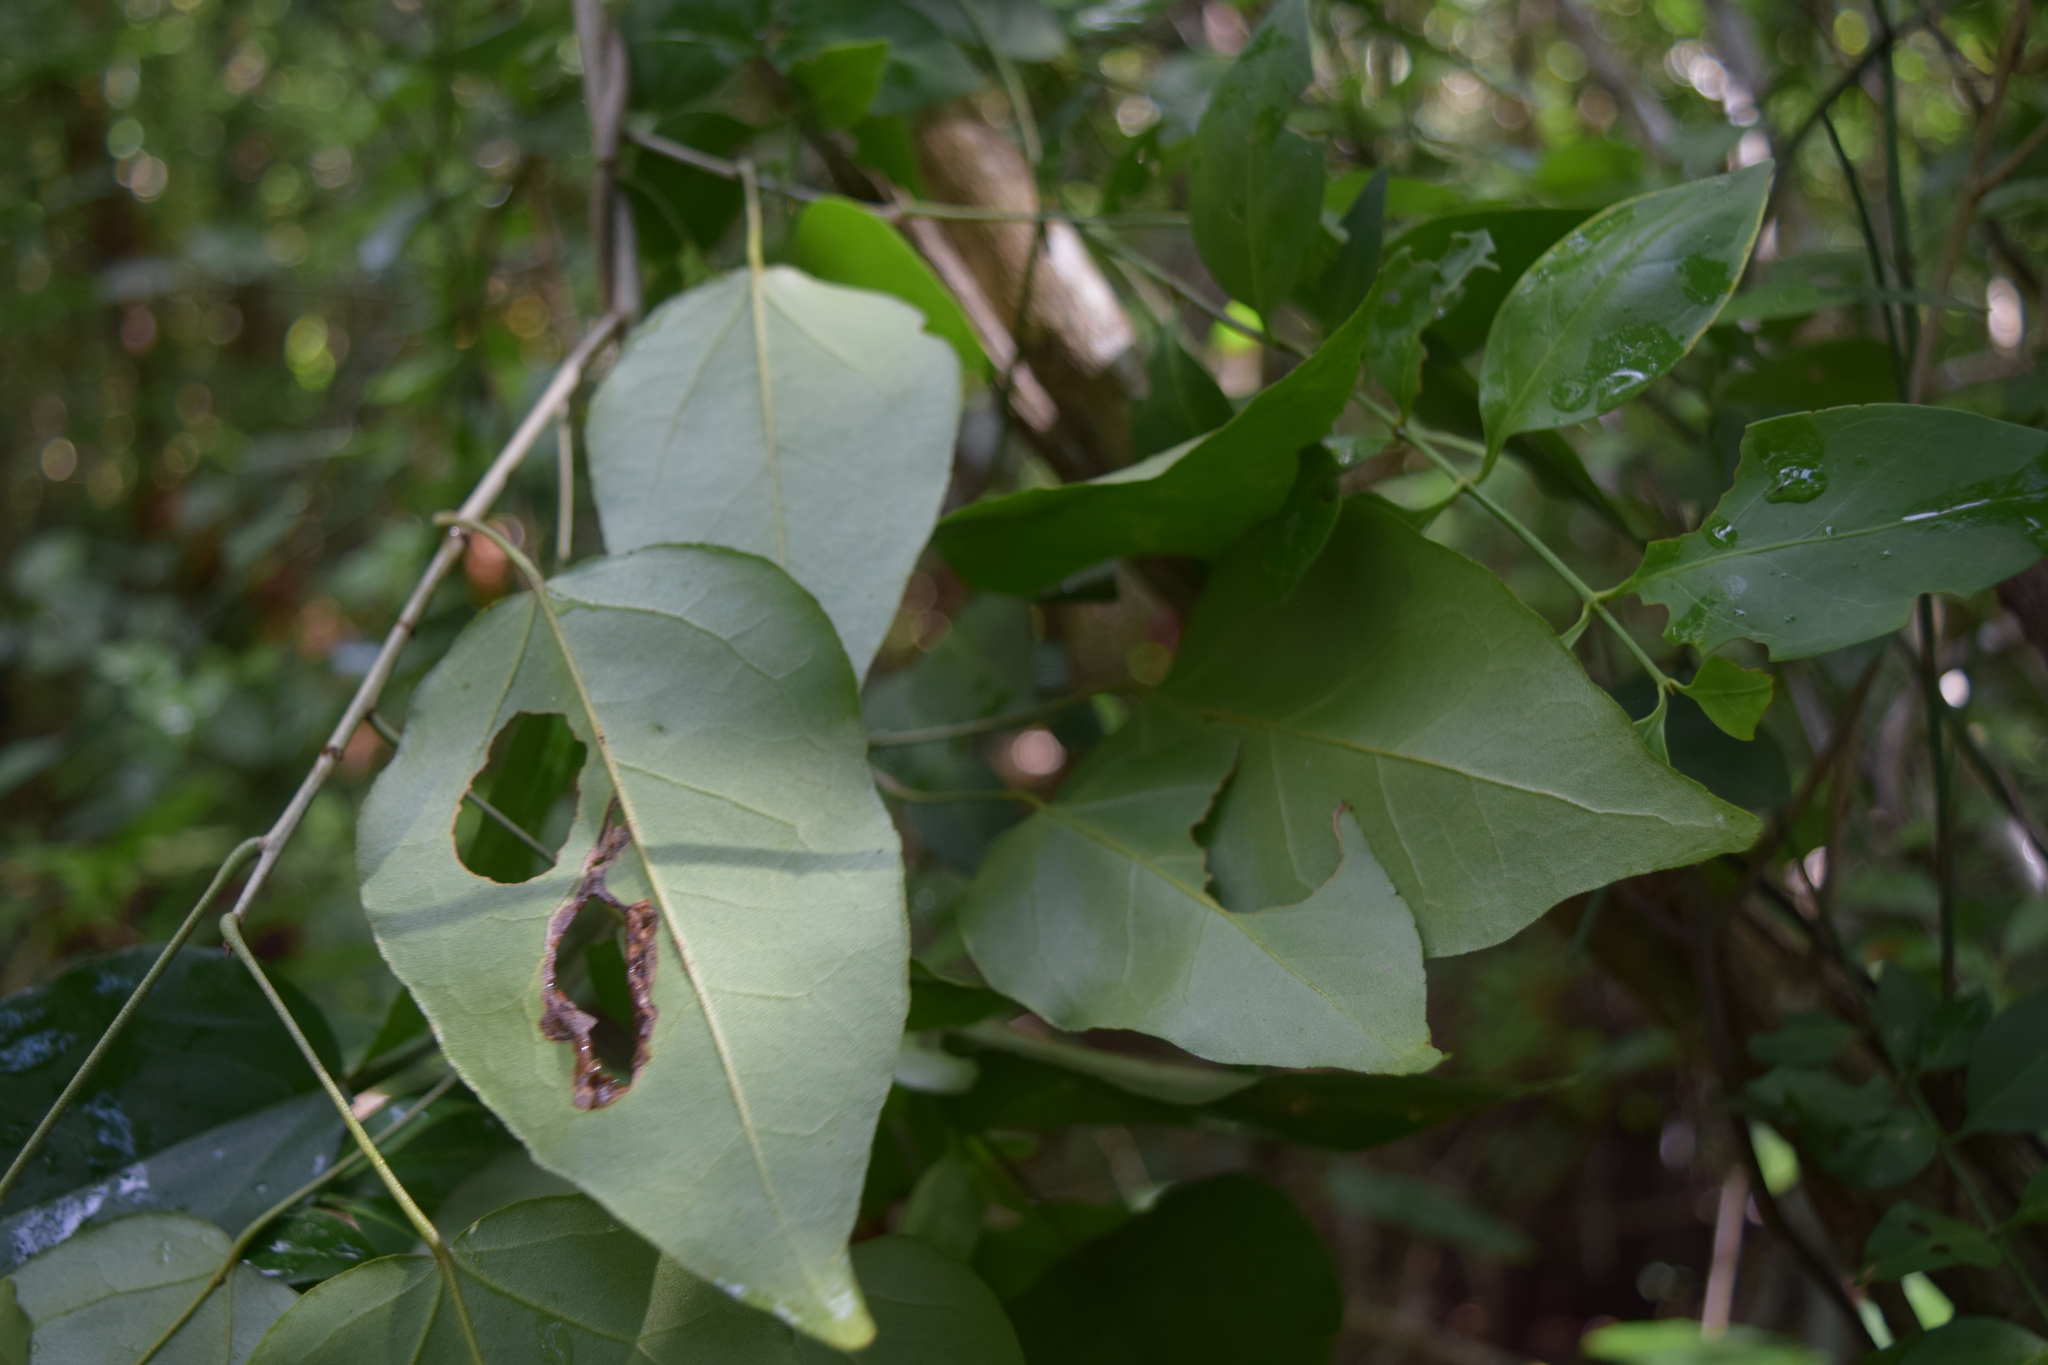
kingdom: Plantae
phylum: Tracheophyta
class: Magnoliopsida
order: Malpighiales
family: Euphorbiaceae
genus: Croton
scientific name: Croton mayanus
